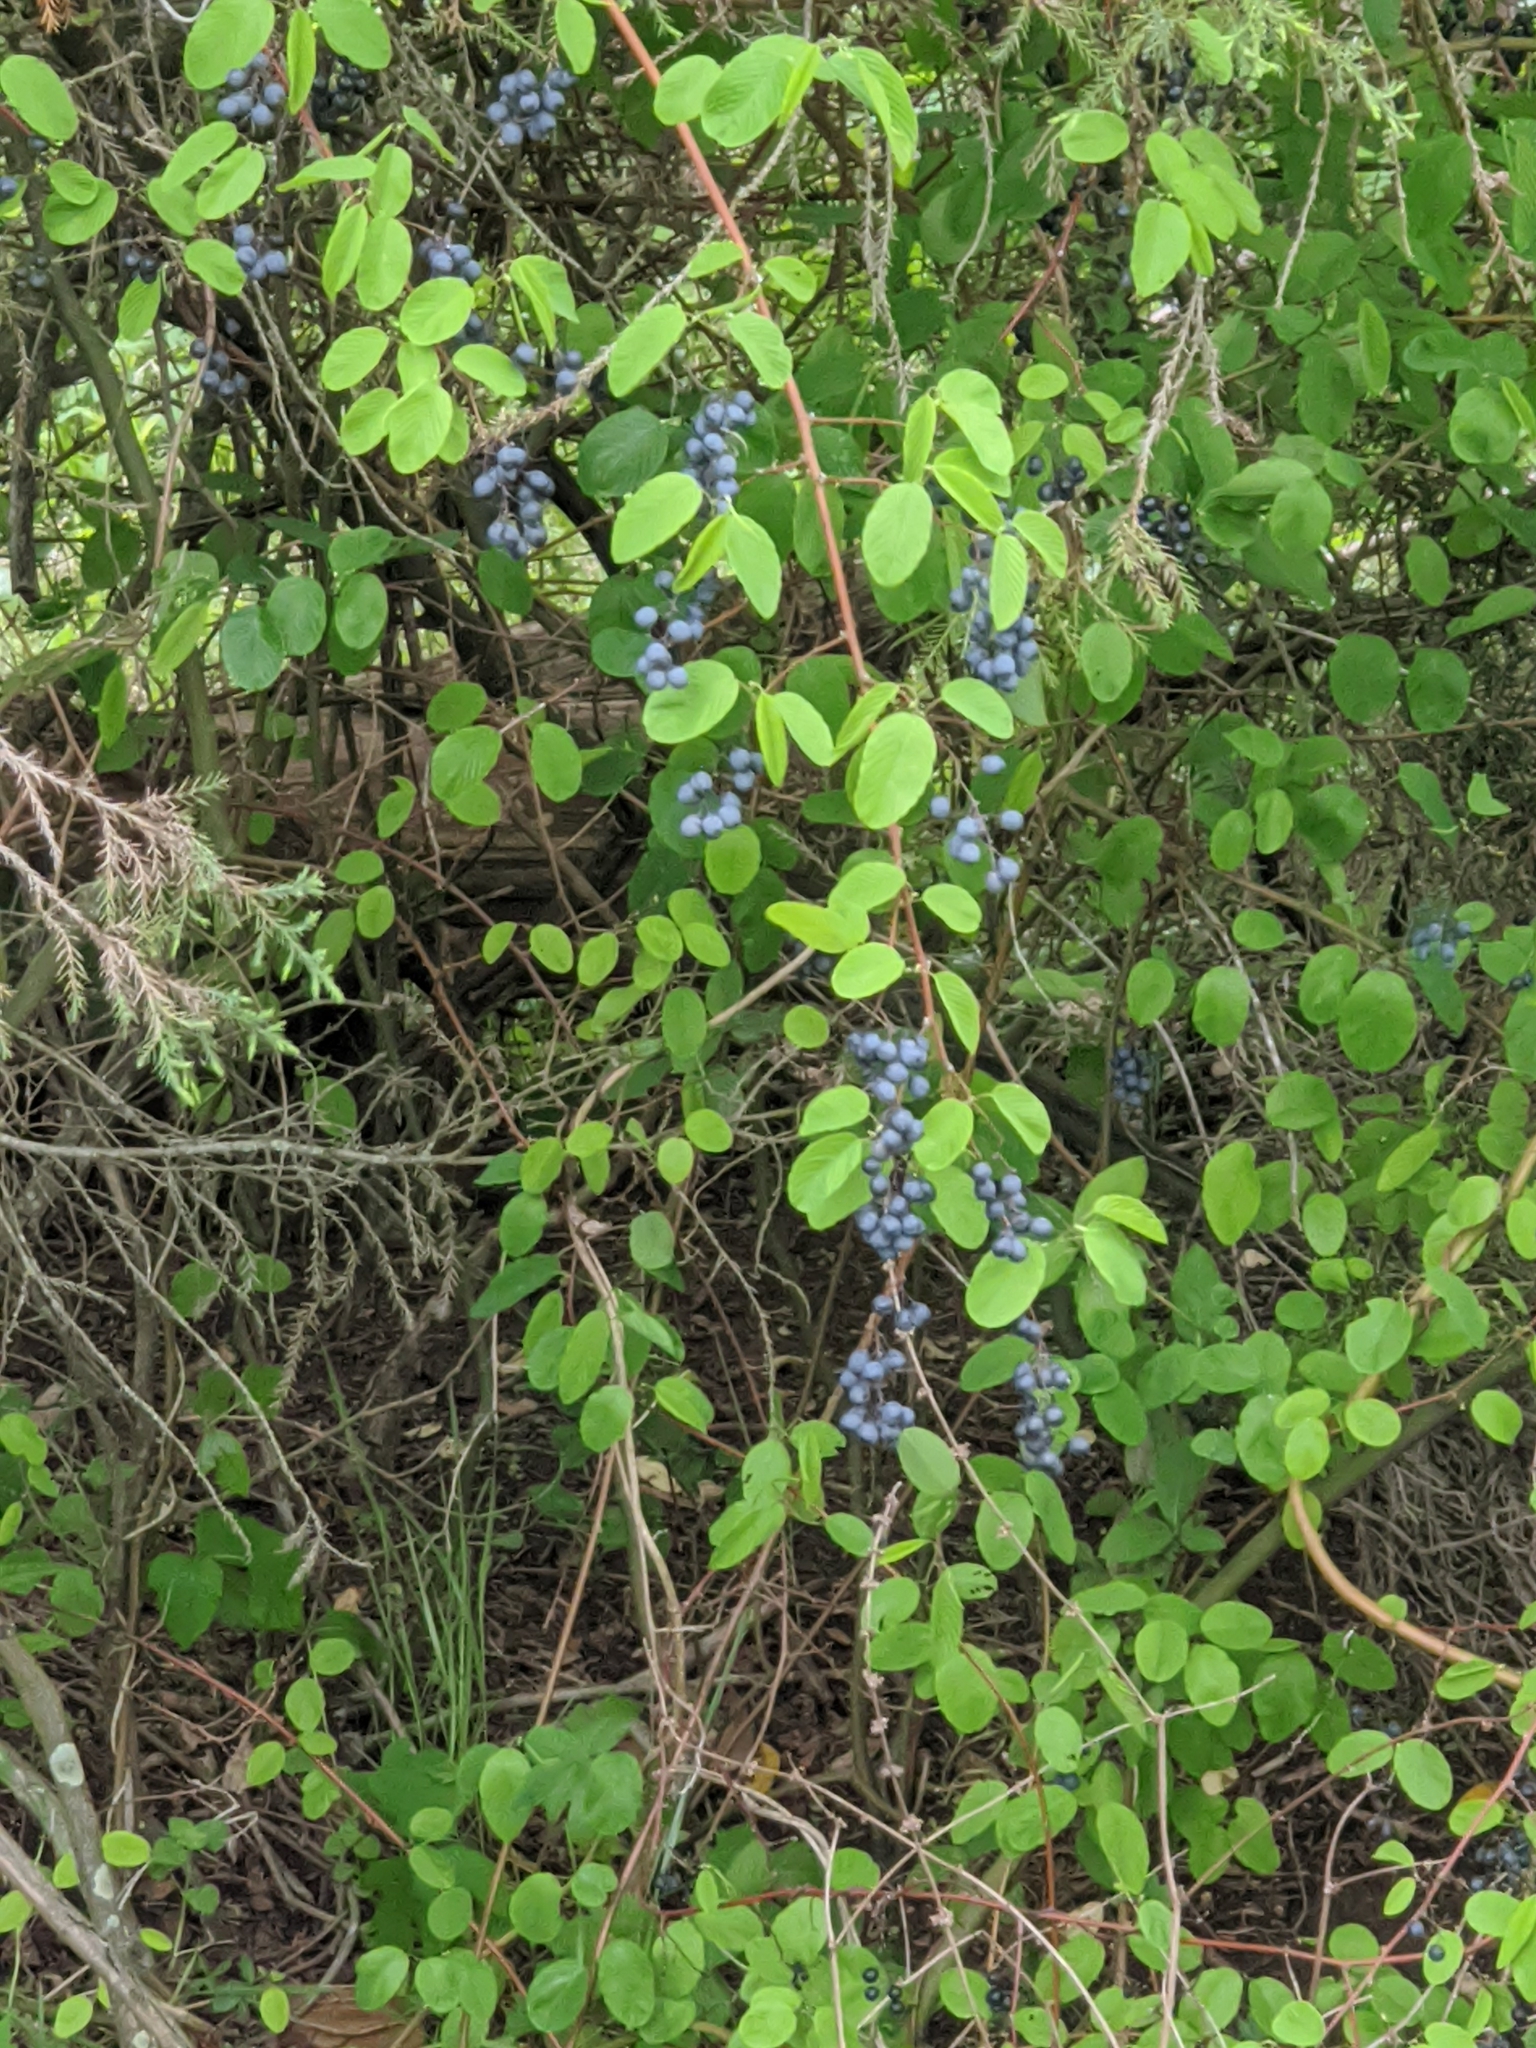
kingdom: Plantae
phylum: Tracheophyta
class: Magnoliopsida
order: Rosales
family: Rhamnaceae
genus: Berchemia
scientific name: Berchemia scandens
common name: Supplejack
